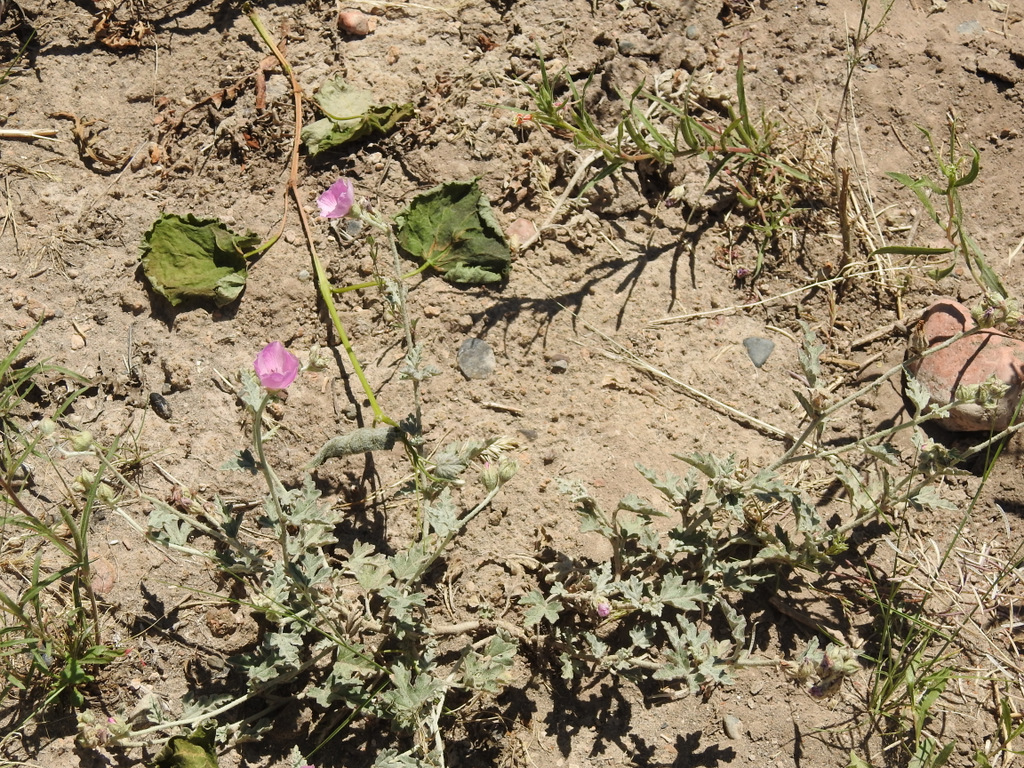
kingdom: Plantae
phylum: Tracheophyta
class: Magnoliopsida
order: Malvales
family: Malvaceae
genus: Sphaeralcea
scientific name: Sphaeralcea mendocina
